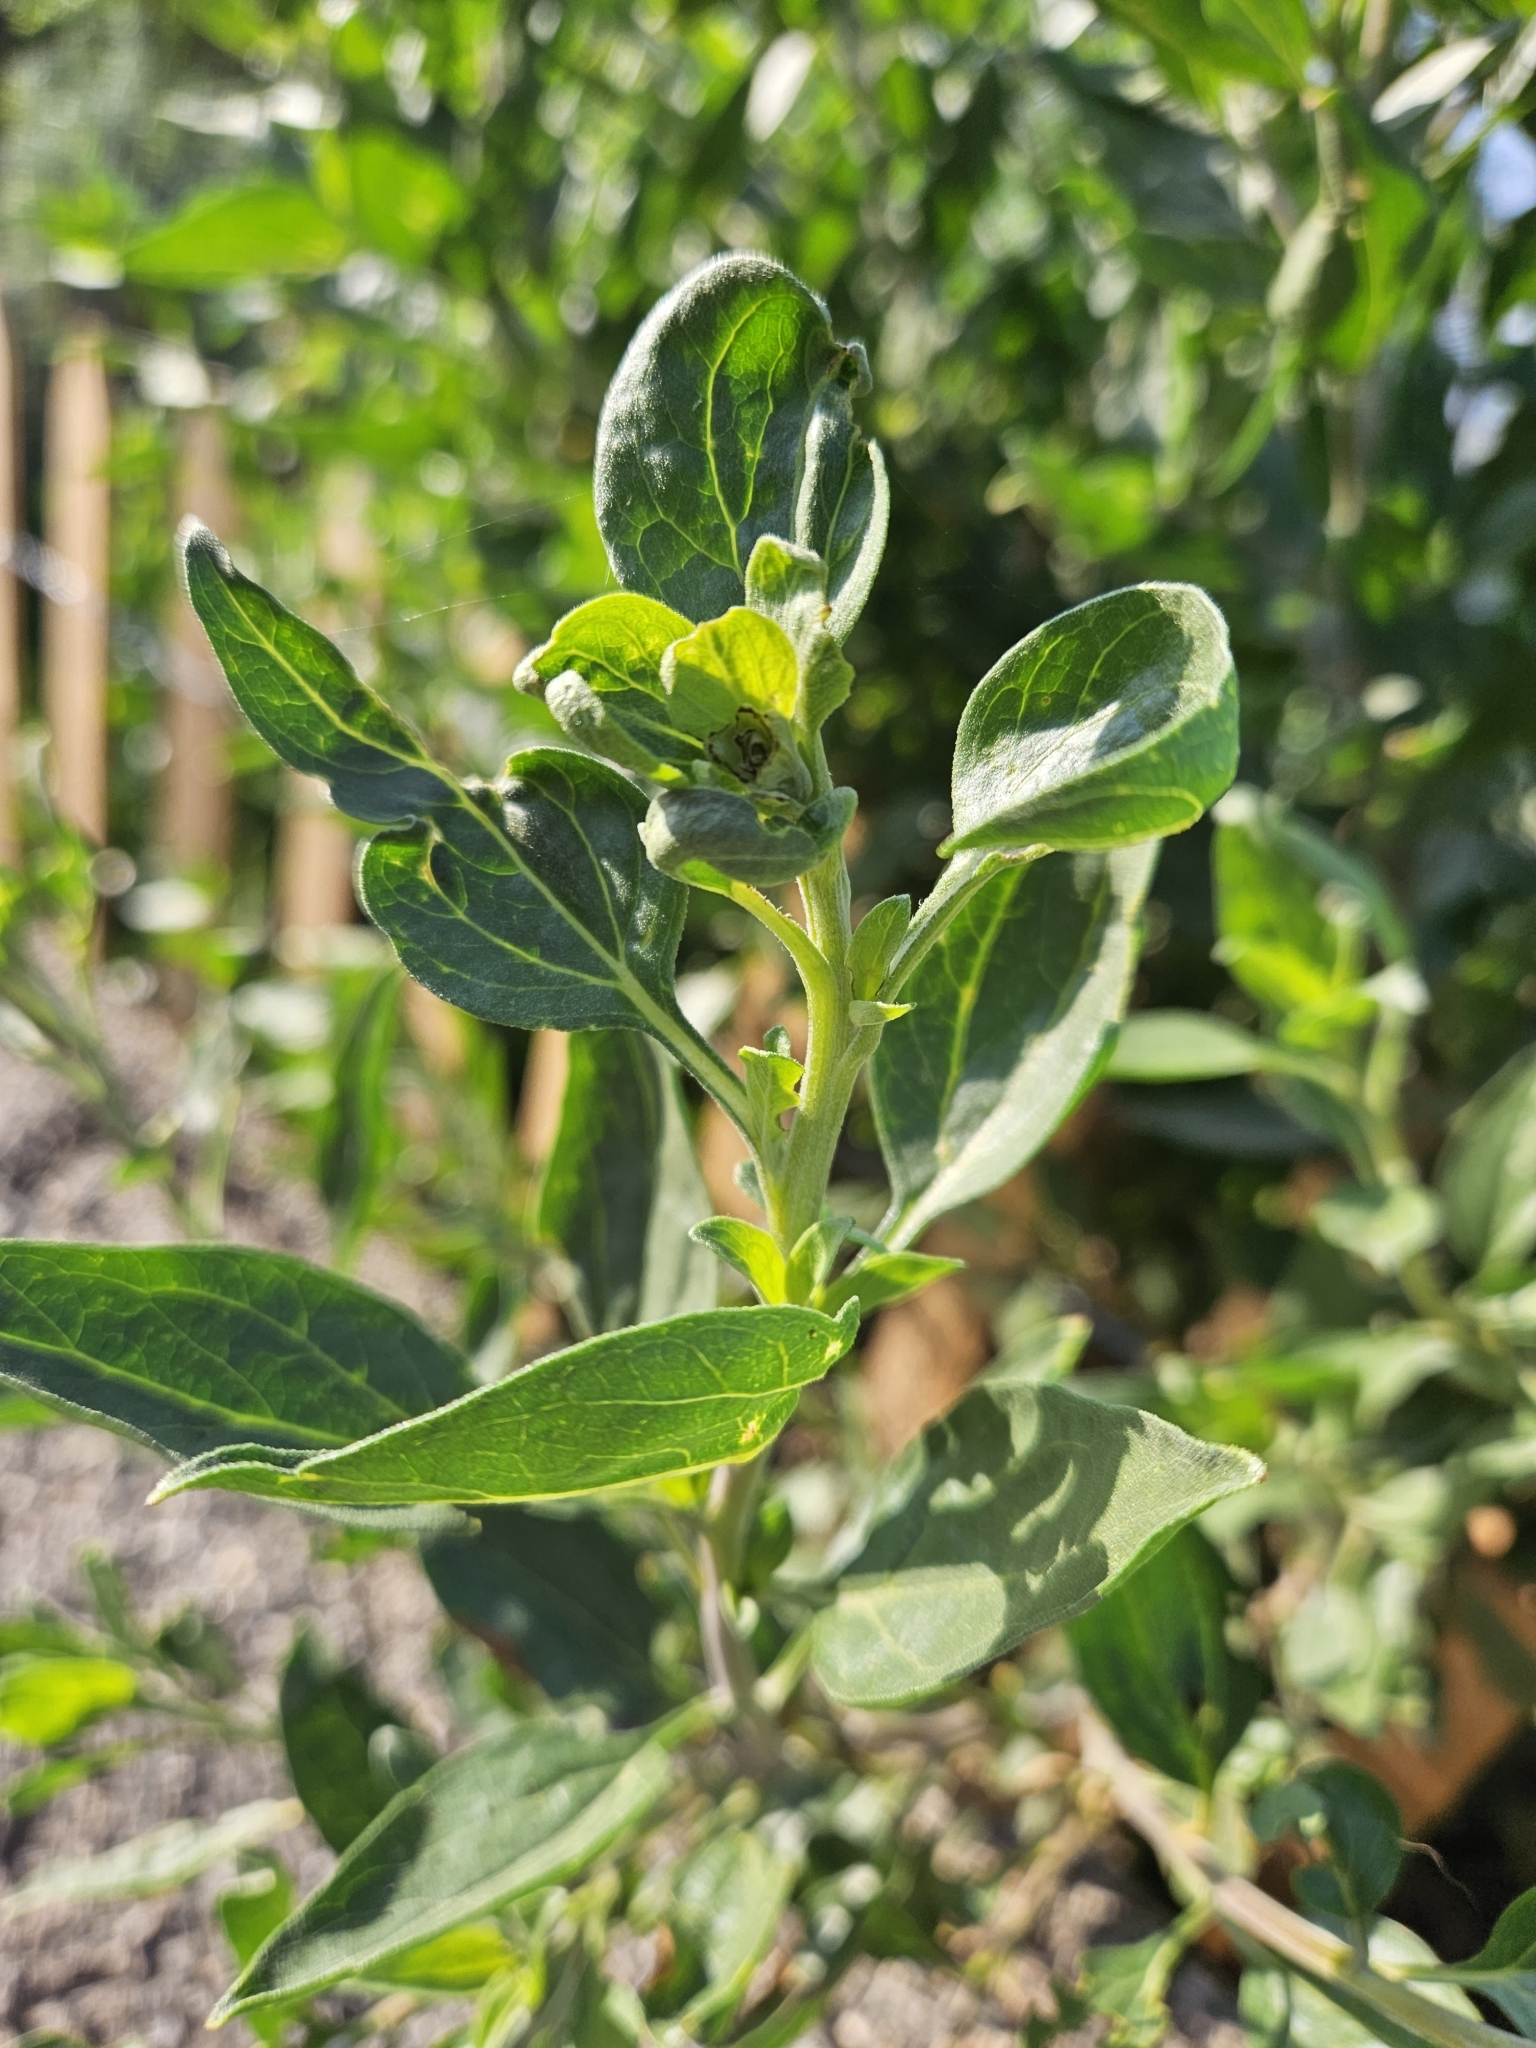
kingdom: Plantae
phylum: Tracheophyta
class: Magnoliopsida
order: Asterales
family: Asteraceae
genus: Encelia
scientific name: Encelia californica
